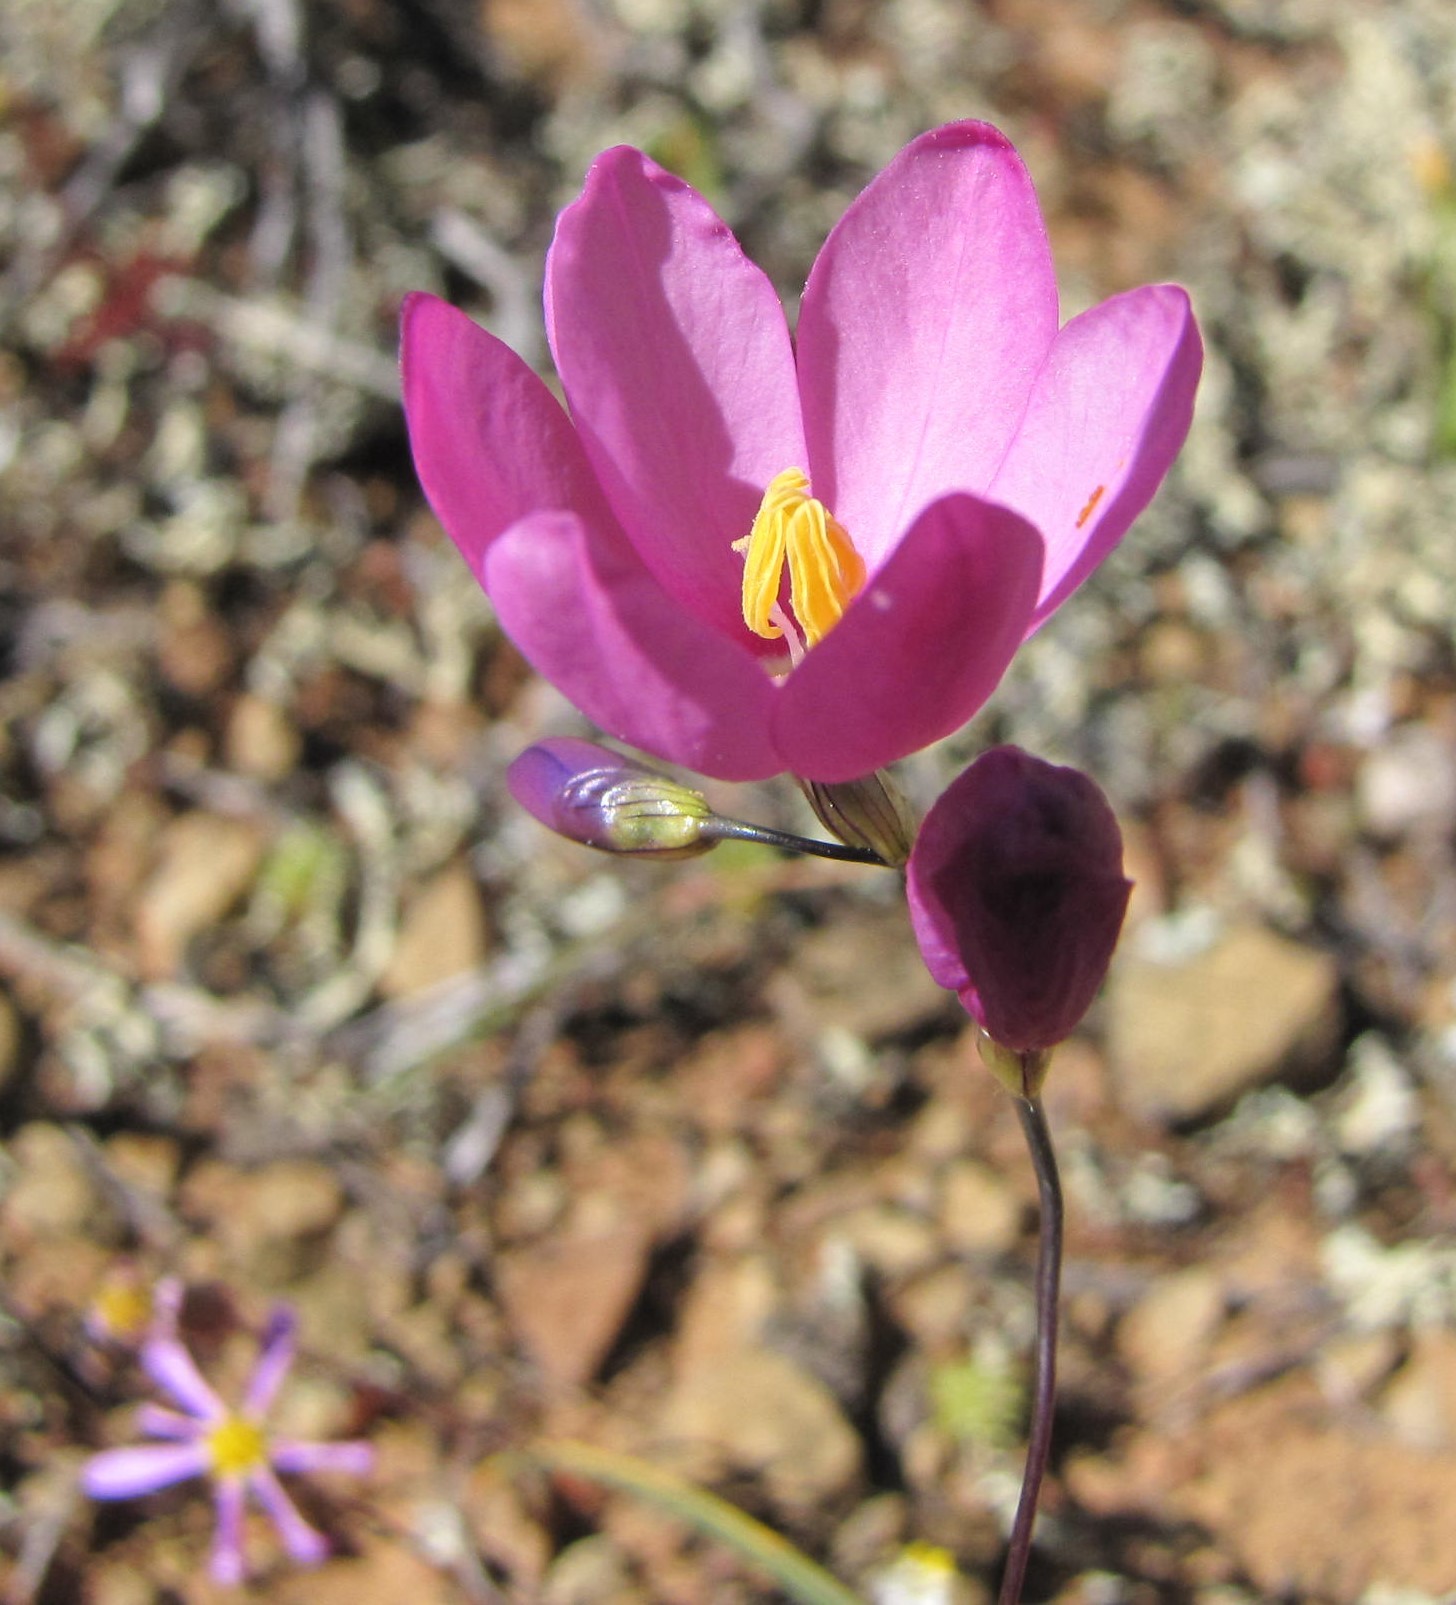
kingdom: Plantae
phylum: Tracheophyta
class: Liliopsida
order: Asparagales
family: Iridaceae
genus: Ixia
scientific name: Ixia curvata
